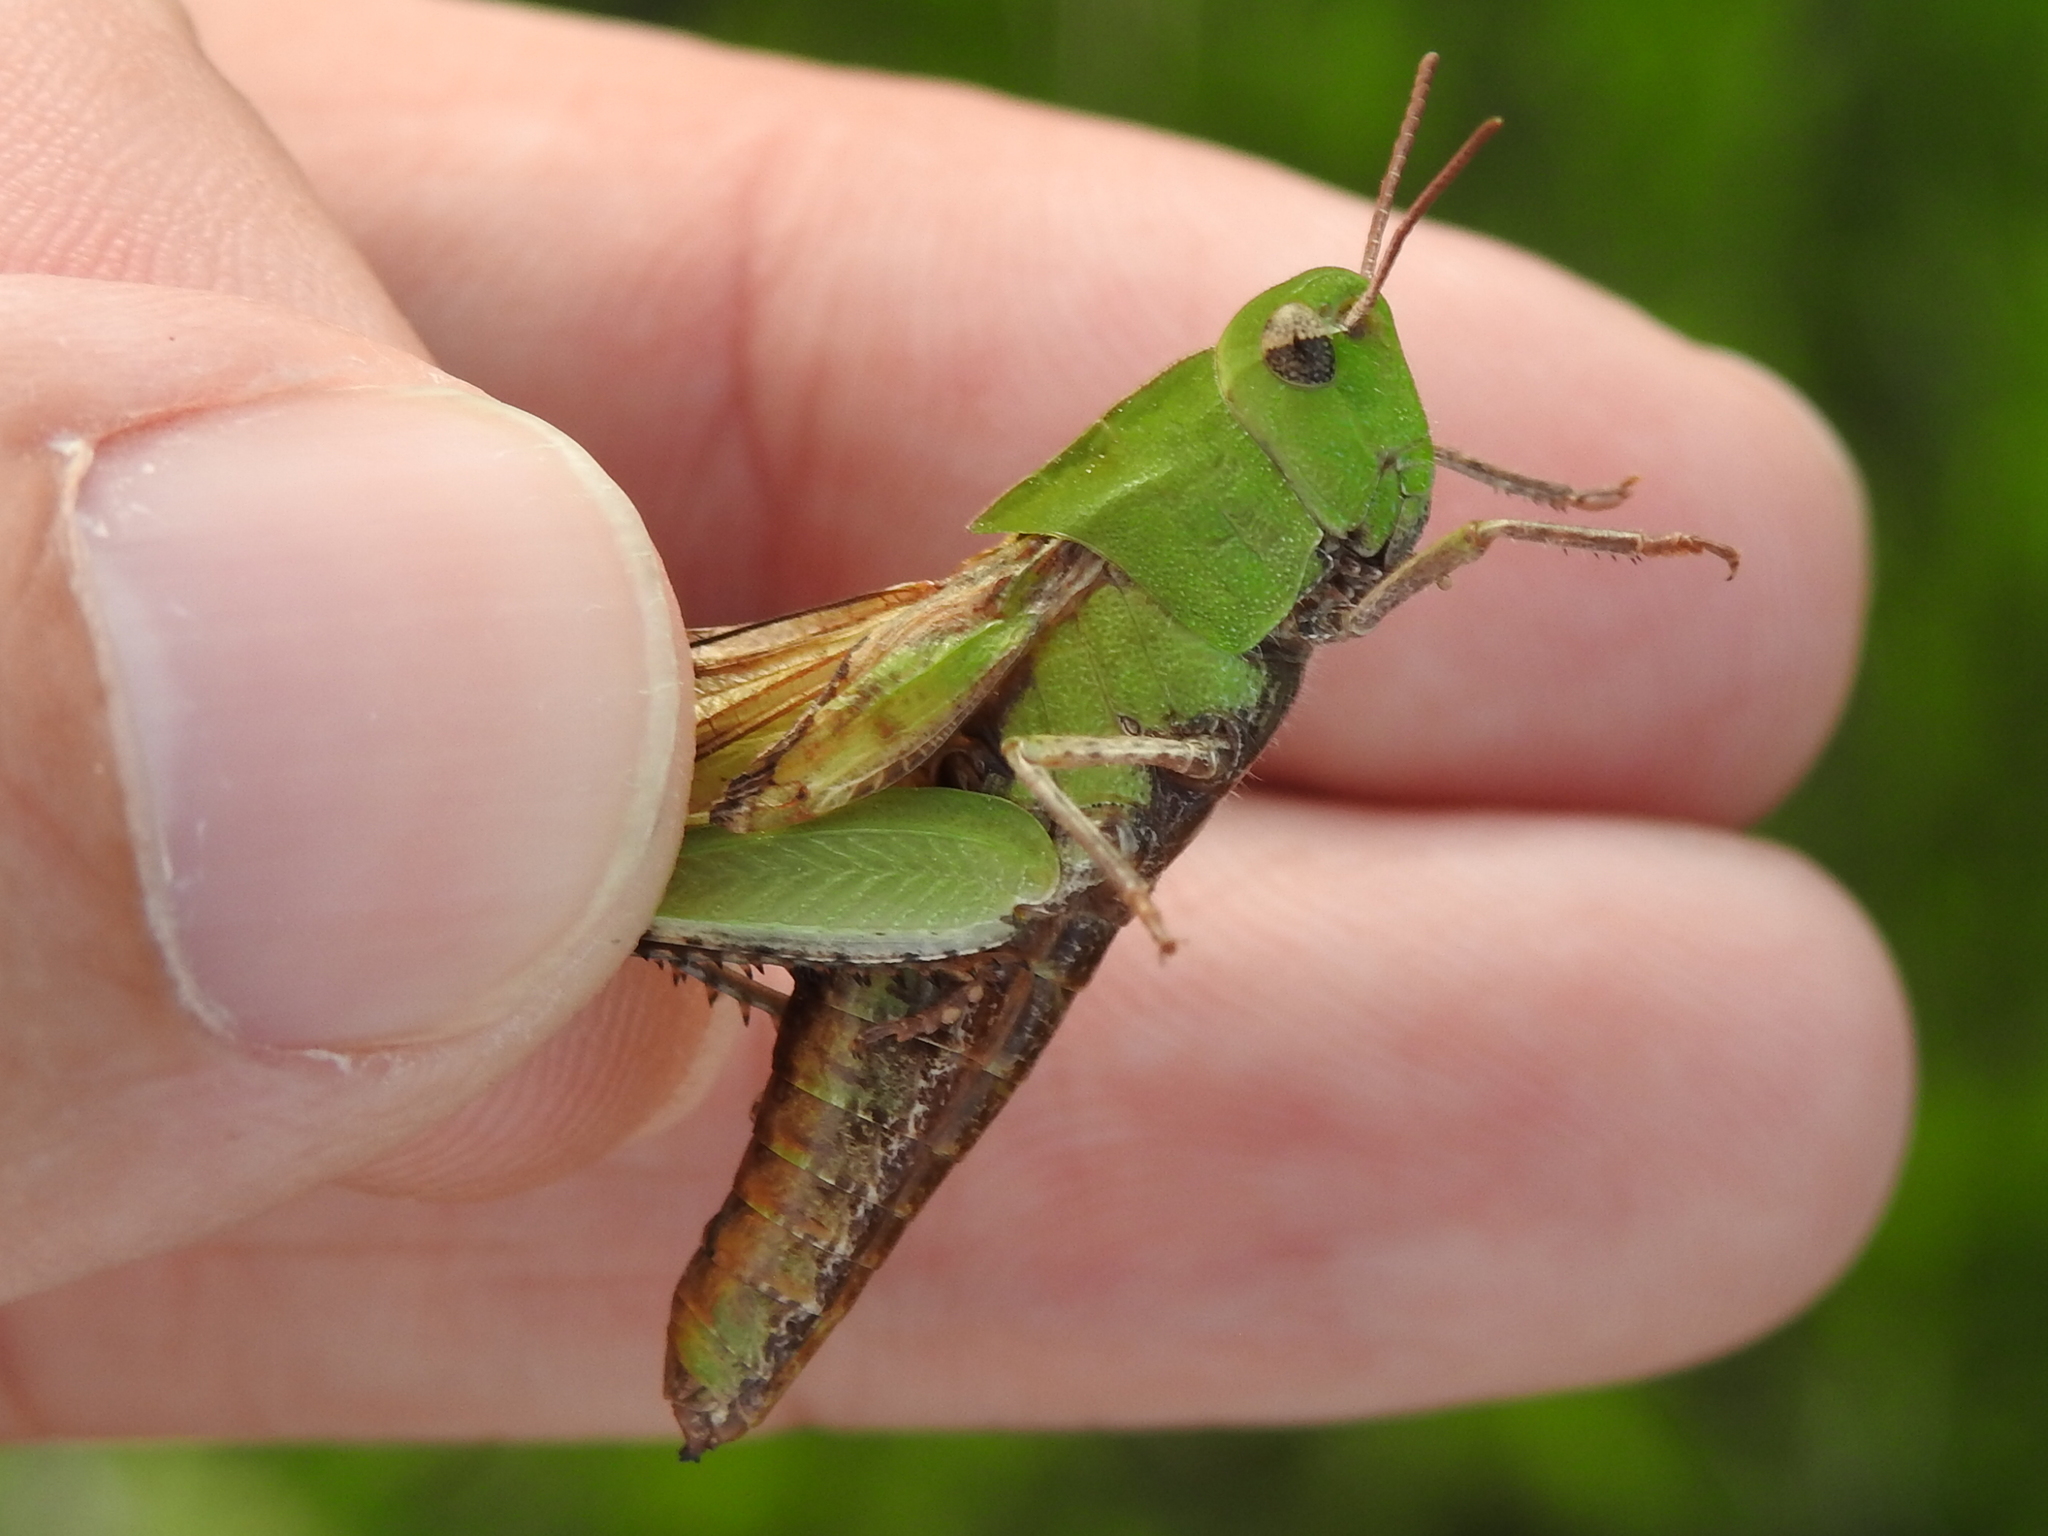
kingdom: Animalia
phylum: Arthropoda
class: Insecta
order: Orthoptera
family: Acrididae
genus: Chortophaga
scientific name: Chortophaga viridifasciata
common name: Green-striped grasshopper
